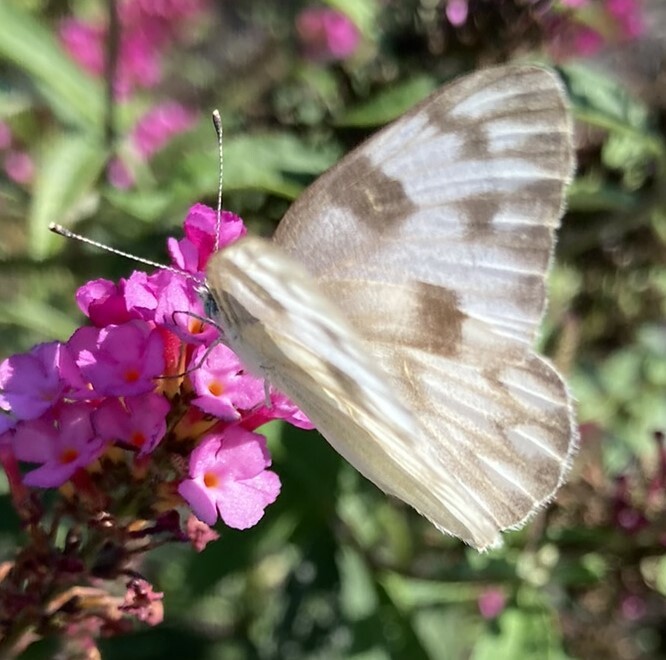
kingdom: Animalia
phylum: Arthropoda
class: Insecta
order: Lepidoptera
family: Pieridae
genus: Pontia
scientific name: Pontia protodice
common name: Checkered white
